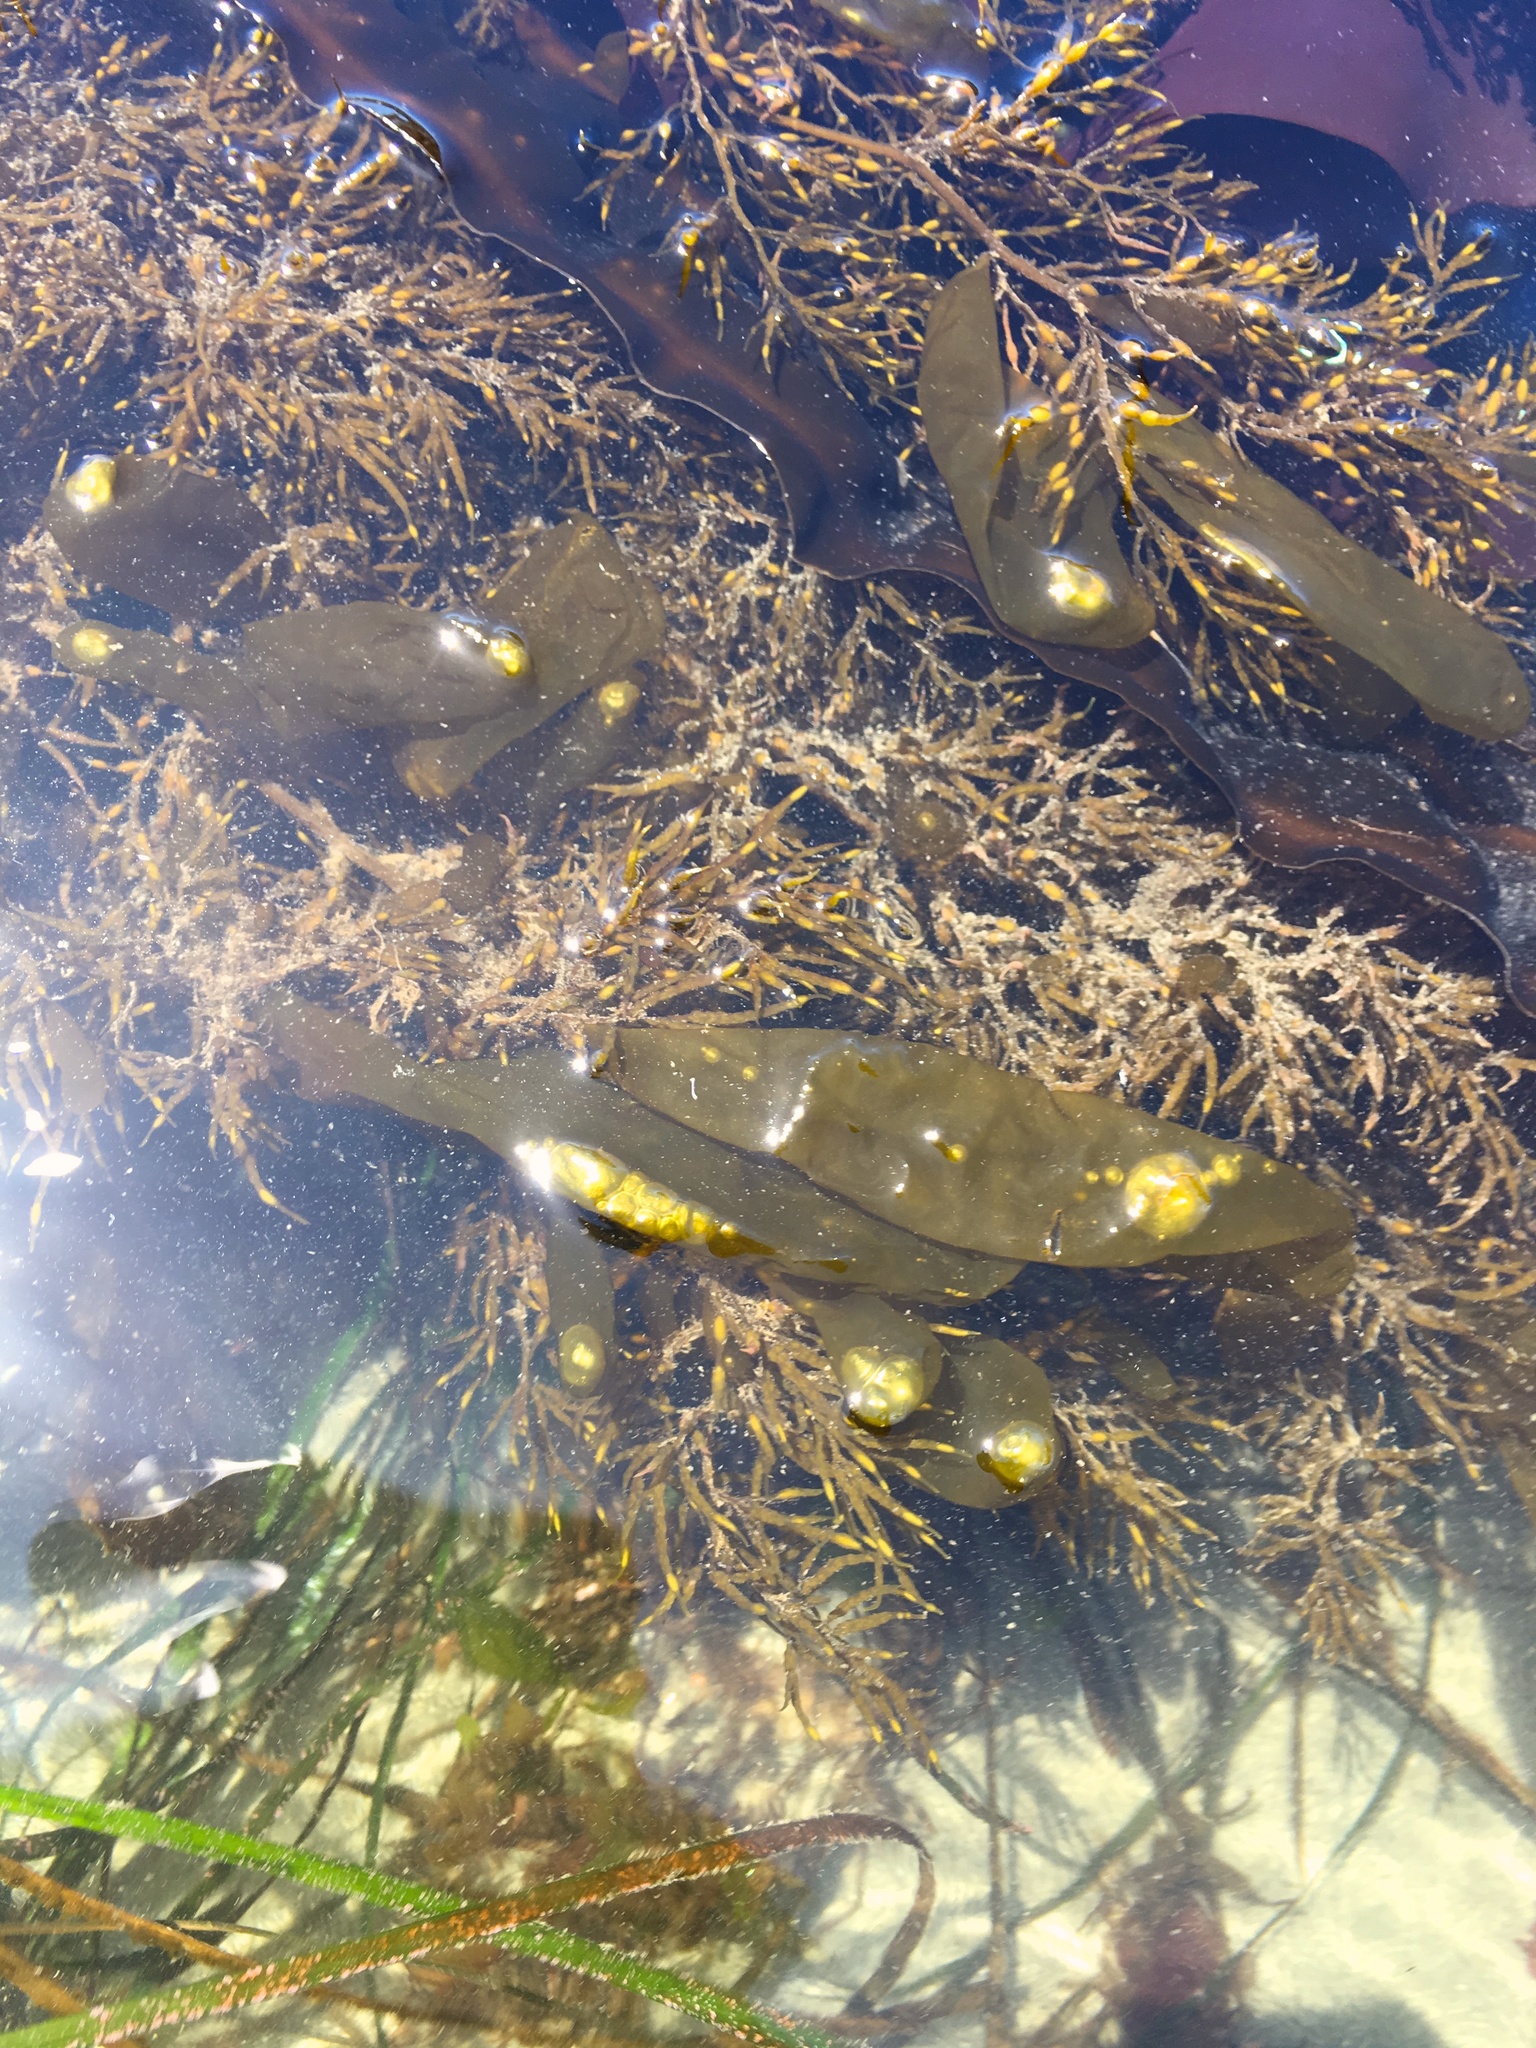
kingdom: Chromista
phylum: Ochrophyta
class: Phaeophyceae
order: Ectocarpales
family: Chordariaceae
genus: Coilodesme
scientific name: Coilodesme californica
